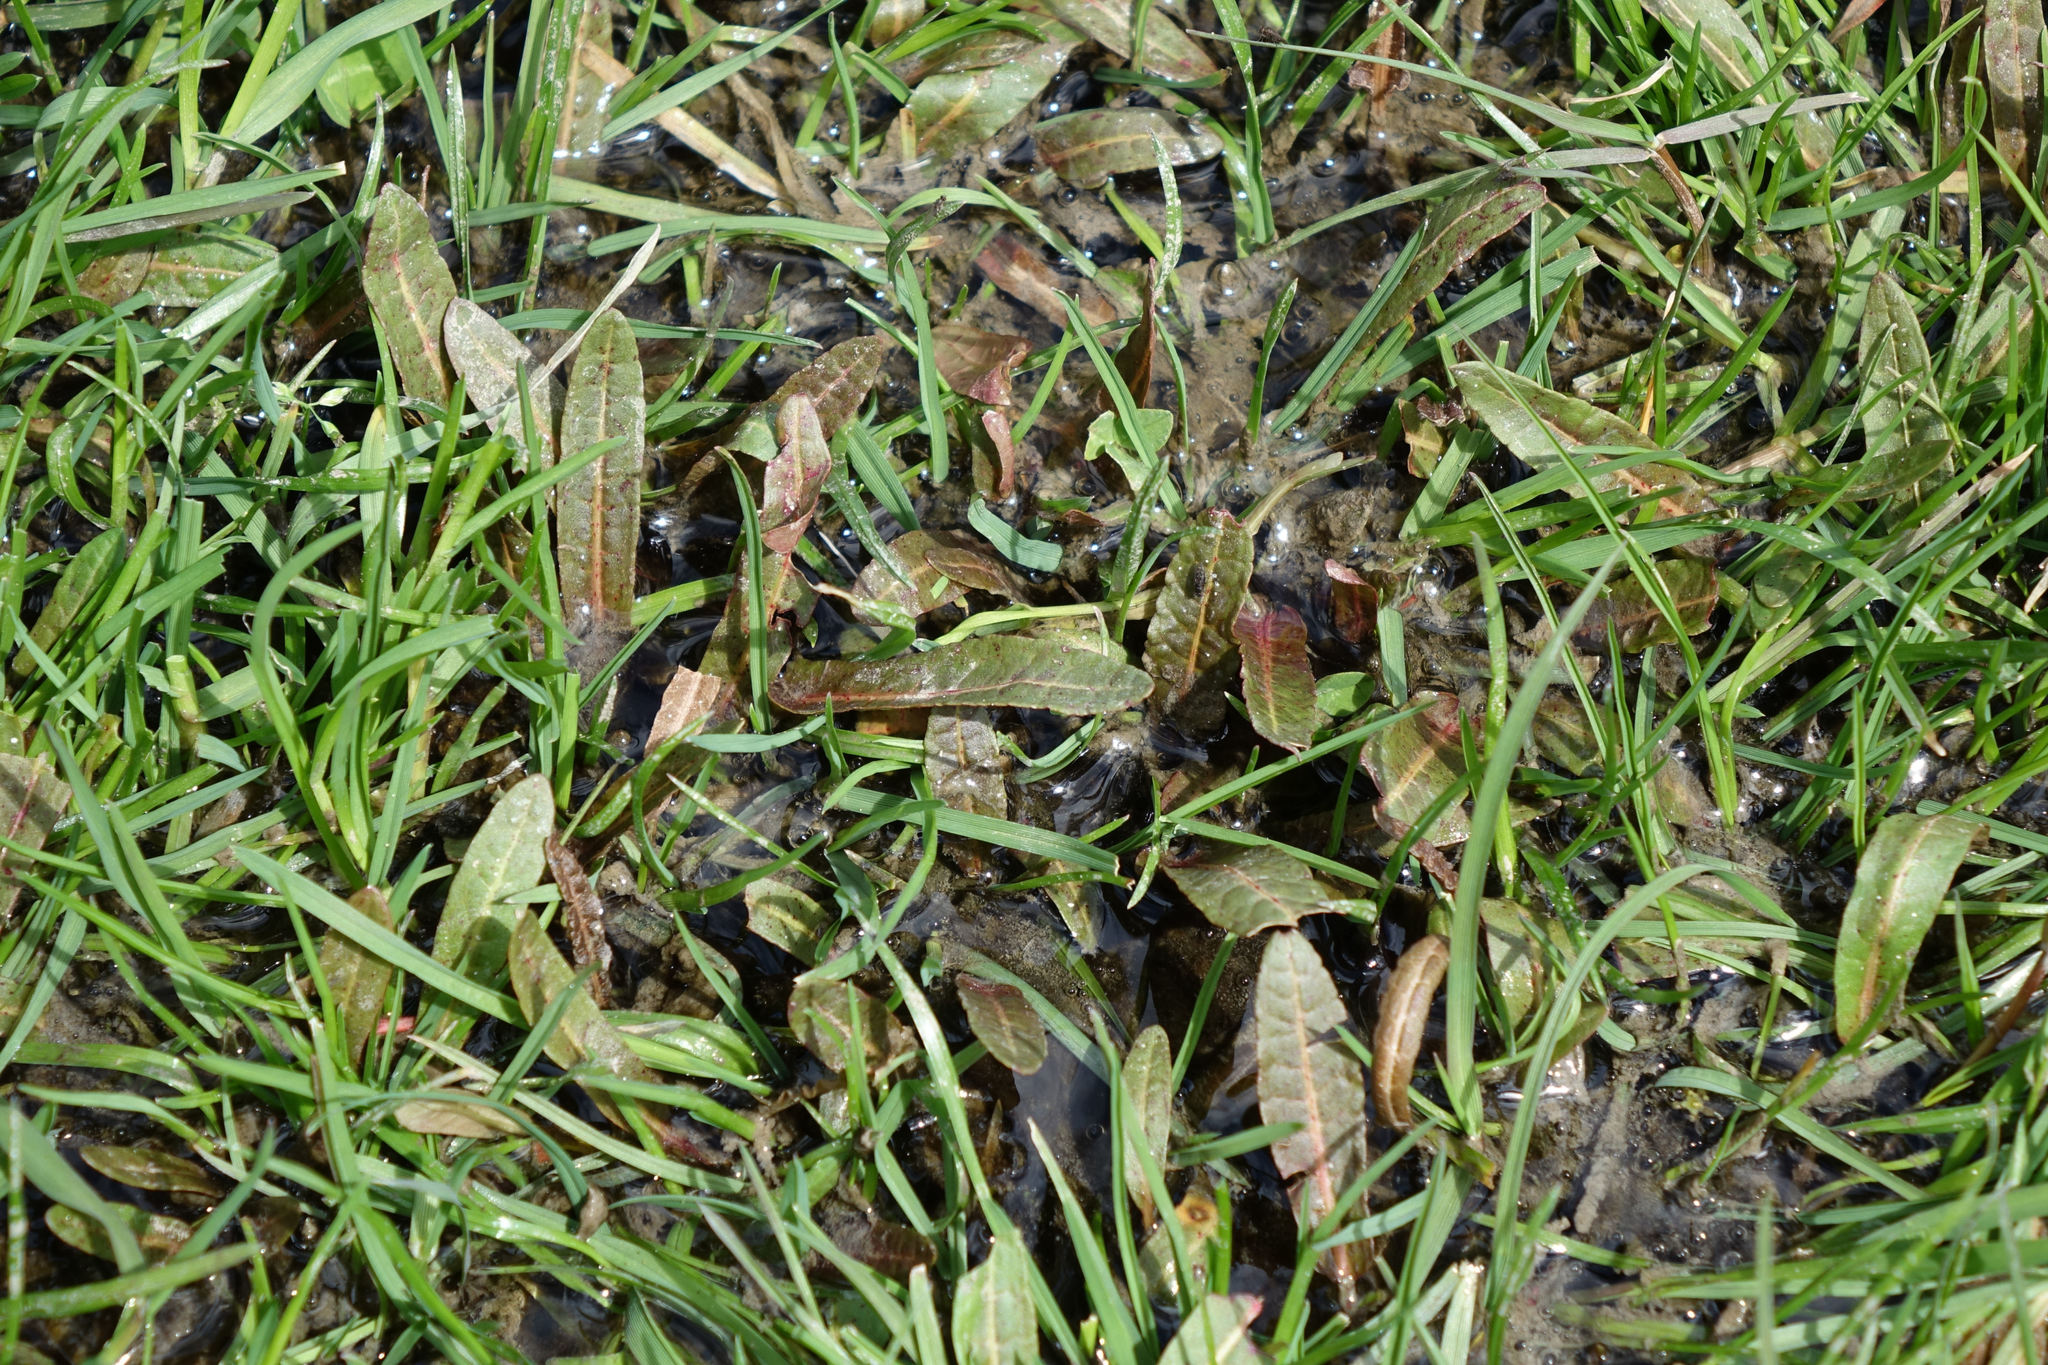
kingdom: Plantae
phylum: Tracheophyta
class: Magnoliopsida
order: Caryophyllales
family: Polygonaceae
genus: Rumex
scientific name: Rumex flexuosus
